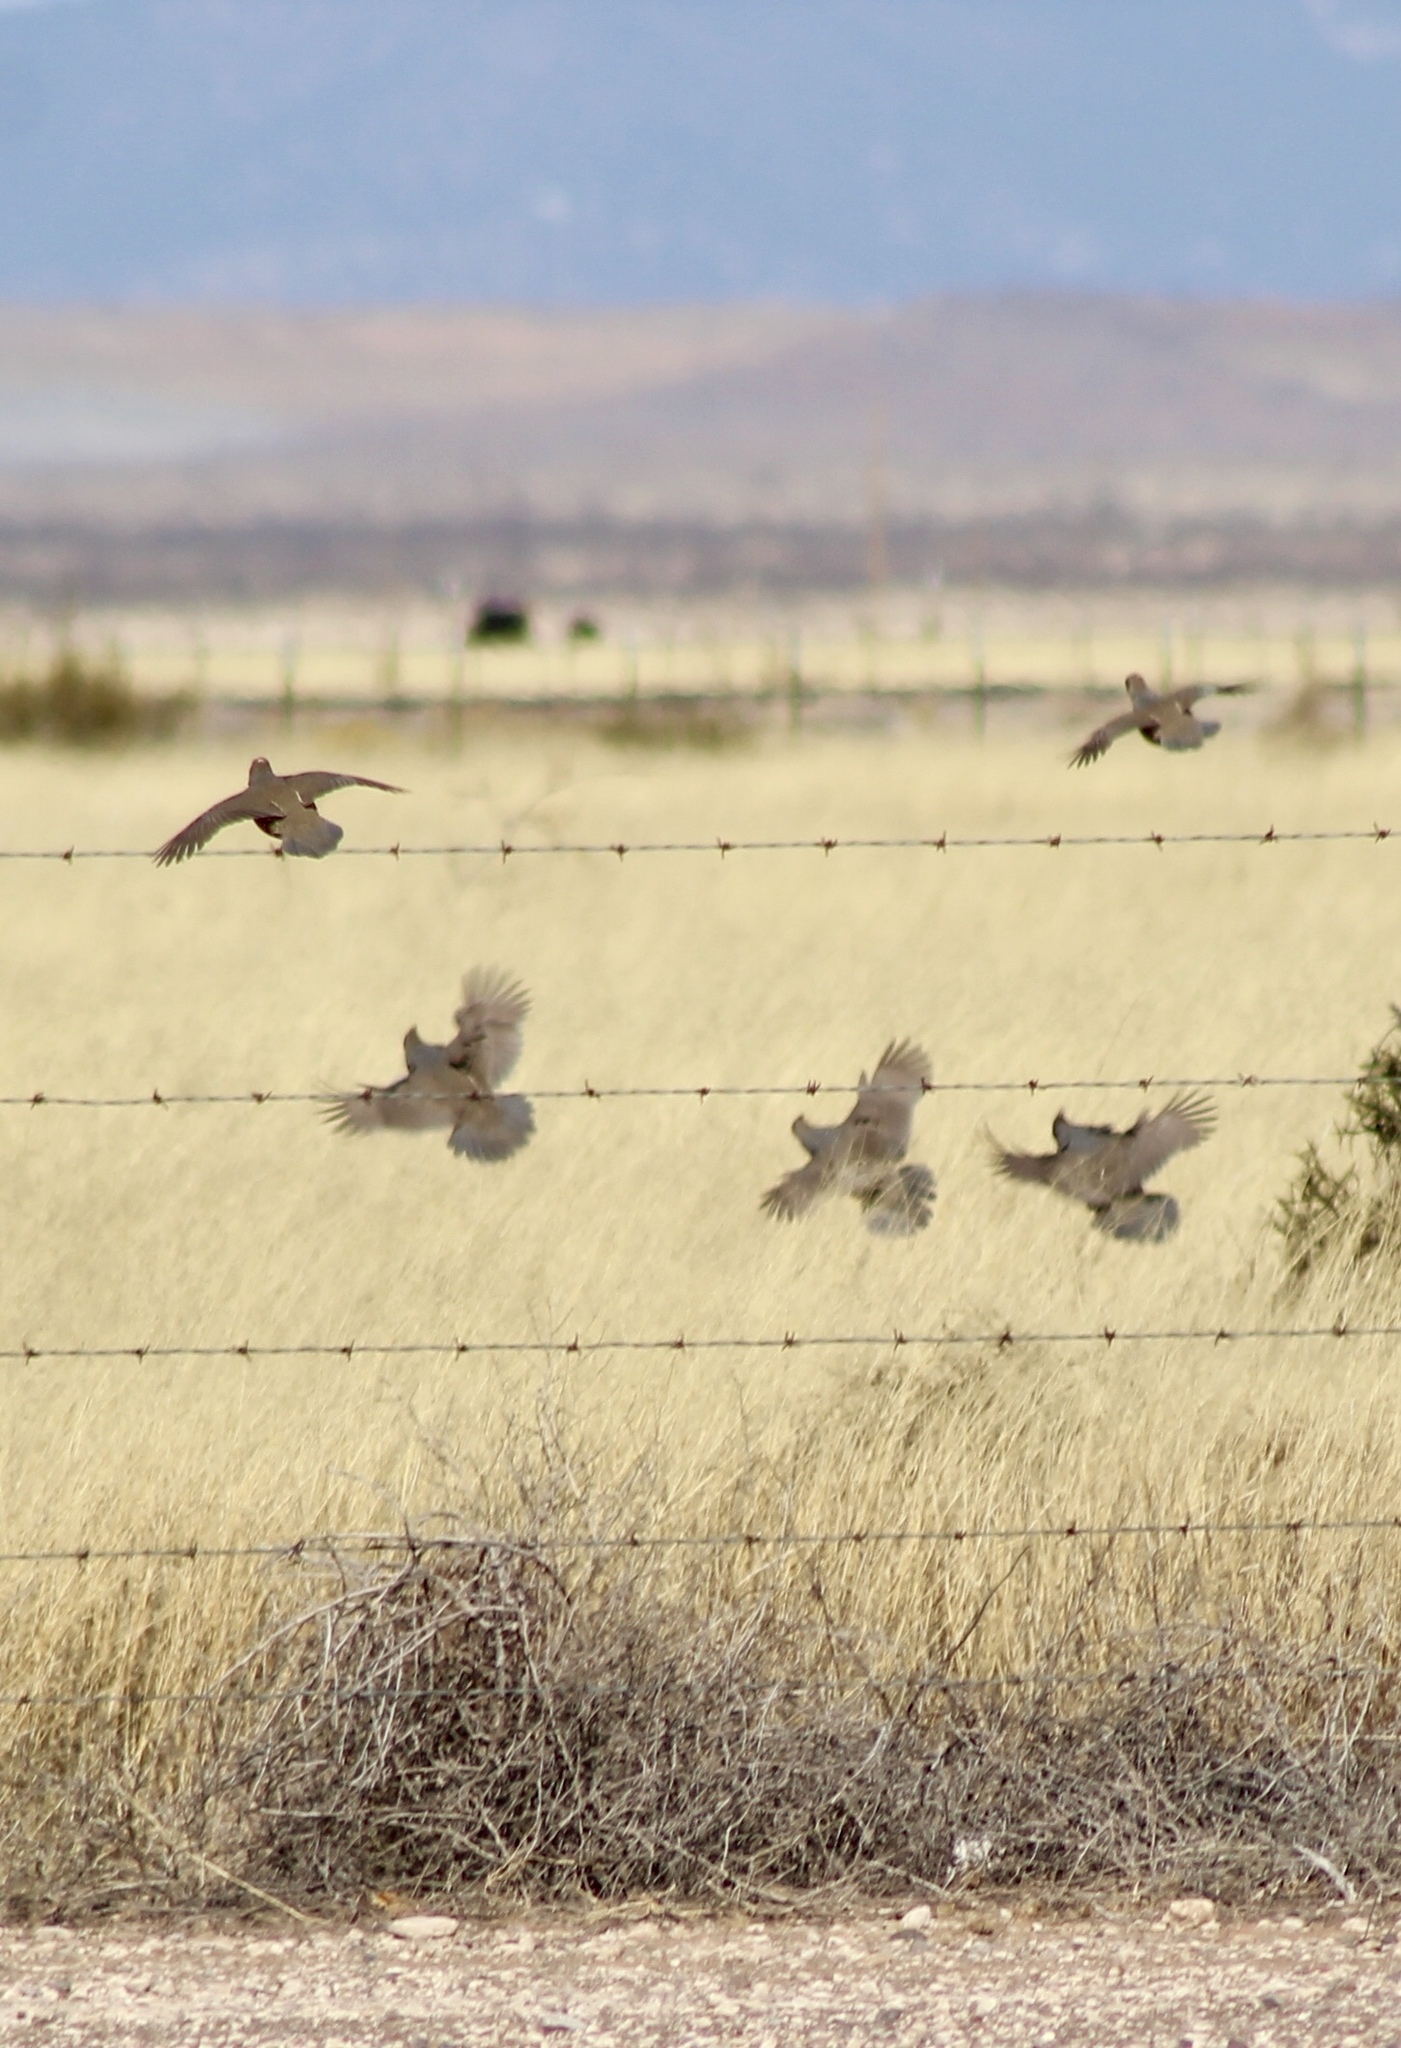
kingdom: Animalia
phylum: Chordata
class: Aves
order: Galliformes
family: Odontophoridae
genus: Callipepla
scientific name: Callipepla squamata
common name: Scaled quail
